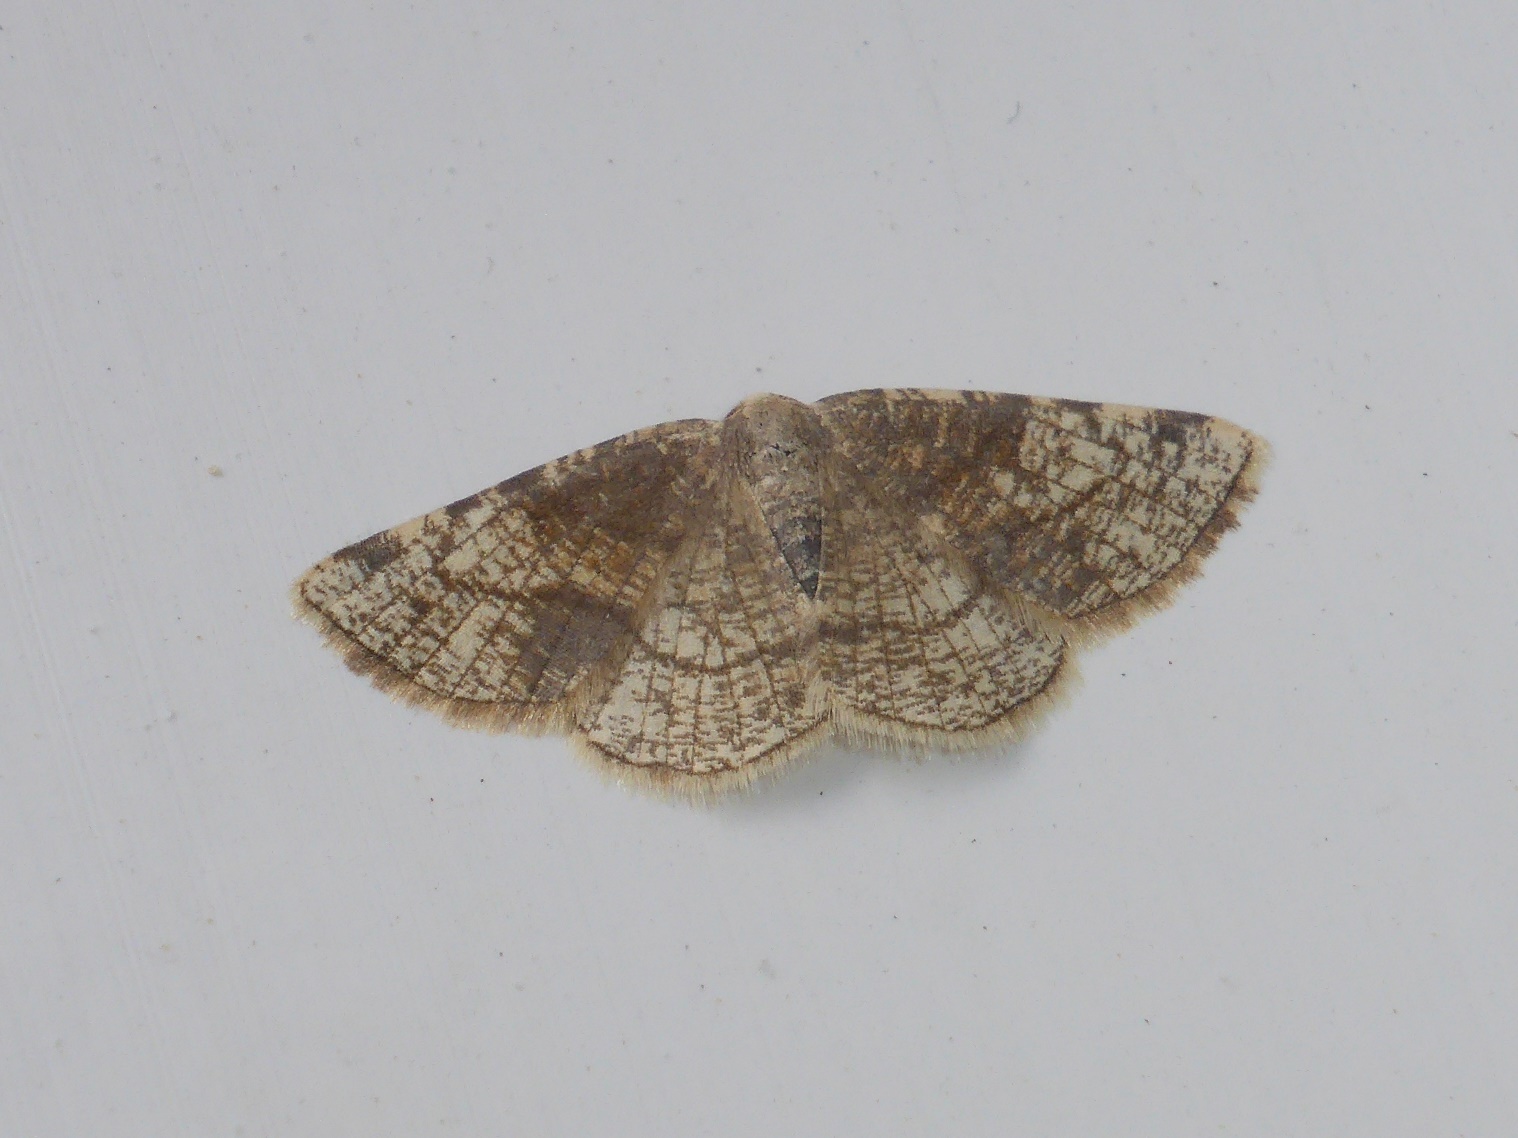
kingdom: Animalia
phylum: Arthropoda
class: Insecta
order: Lepidoptera
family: Geometridae
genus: Stegania
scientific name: Stegania trimaculata
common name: Dorset cream wave
